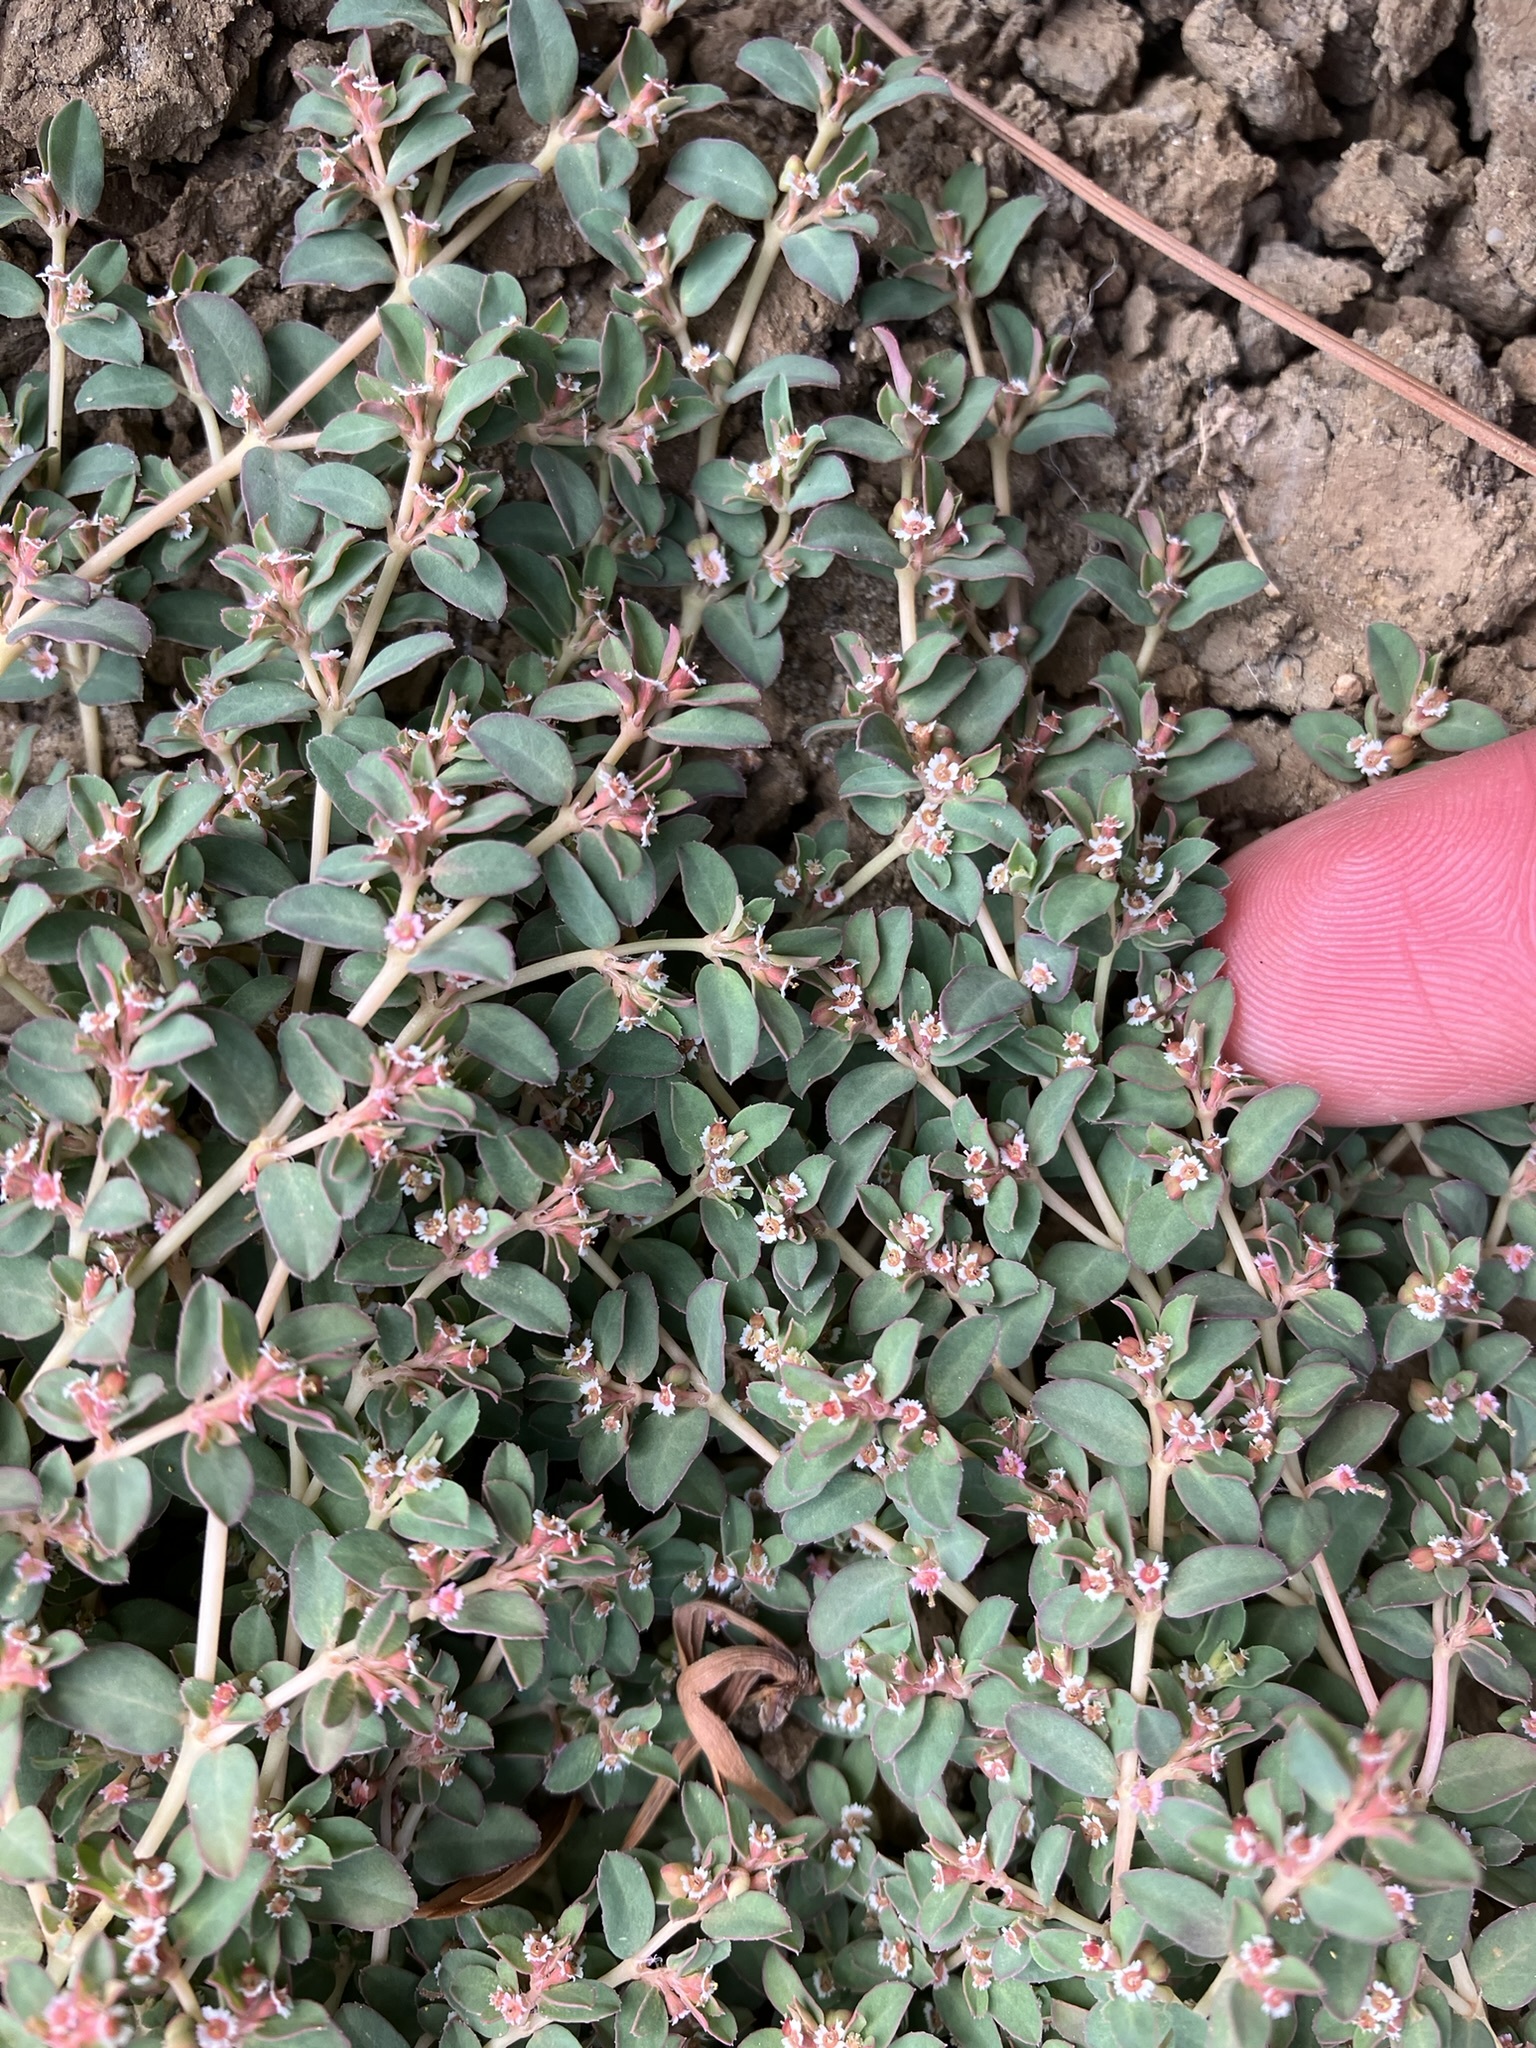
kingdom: Plantae
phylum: Tracheophyta
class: Magnoliopsida
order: Malpighiales
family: Euphorbiaceae
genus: Euphorbia
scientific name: Euphorbia serpillifolia
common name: Thyme-leaf spurge
